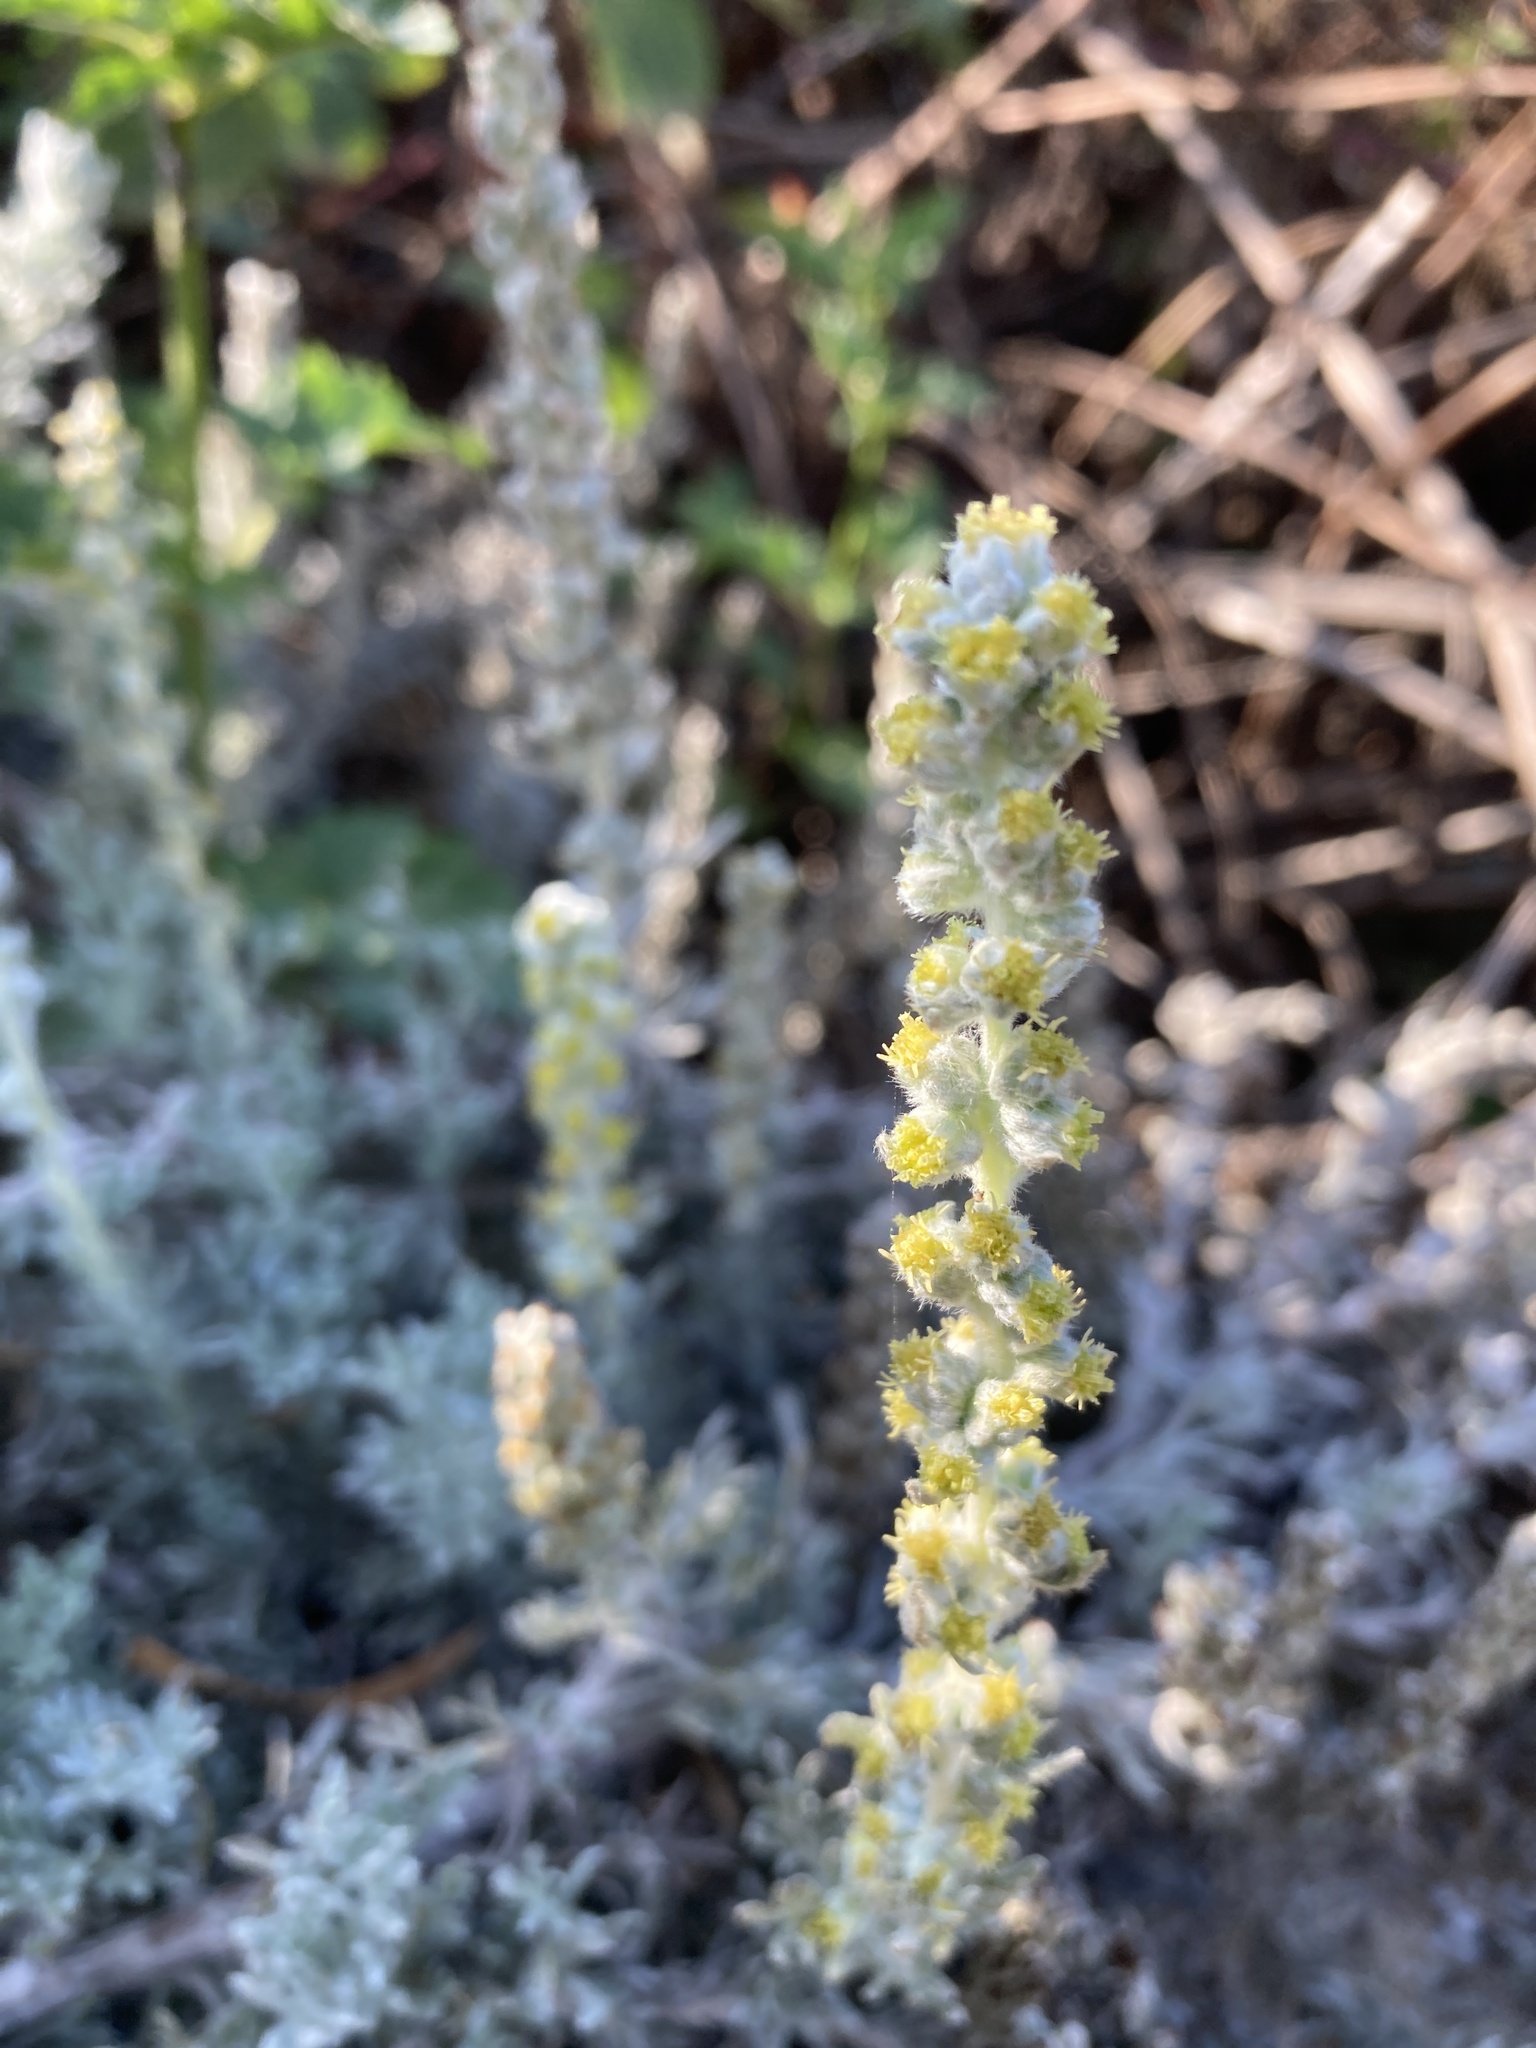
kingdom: Plantae
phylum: Tracheophyta
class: Magnoliopsida
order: Asterales
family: Asteraceae
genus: Artemisia
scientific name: Artemisia pycnocephala
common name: Coastal sagewort
